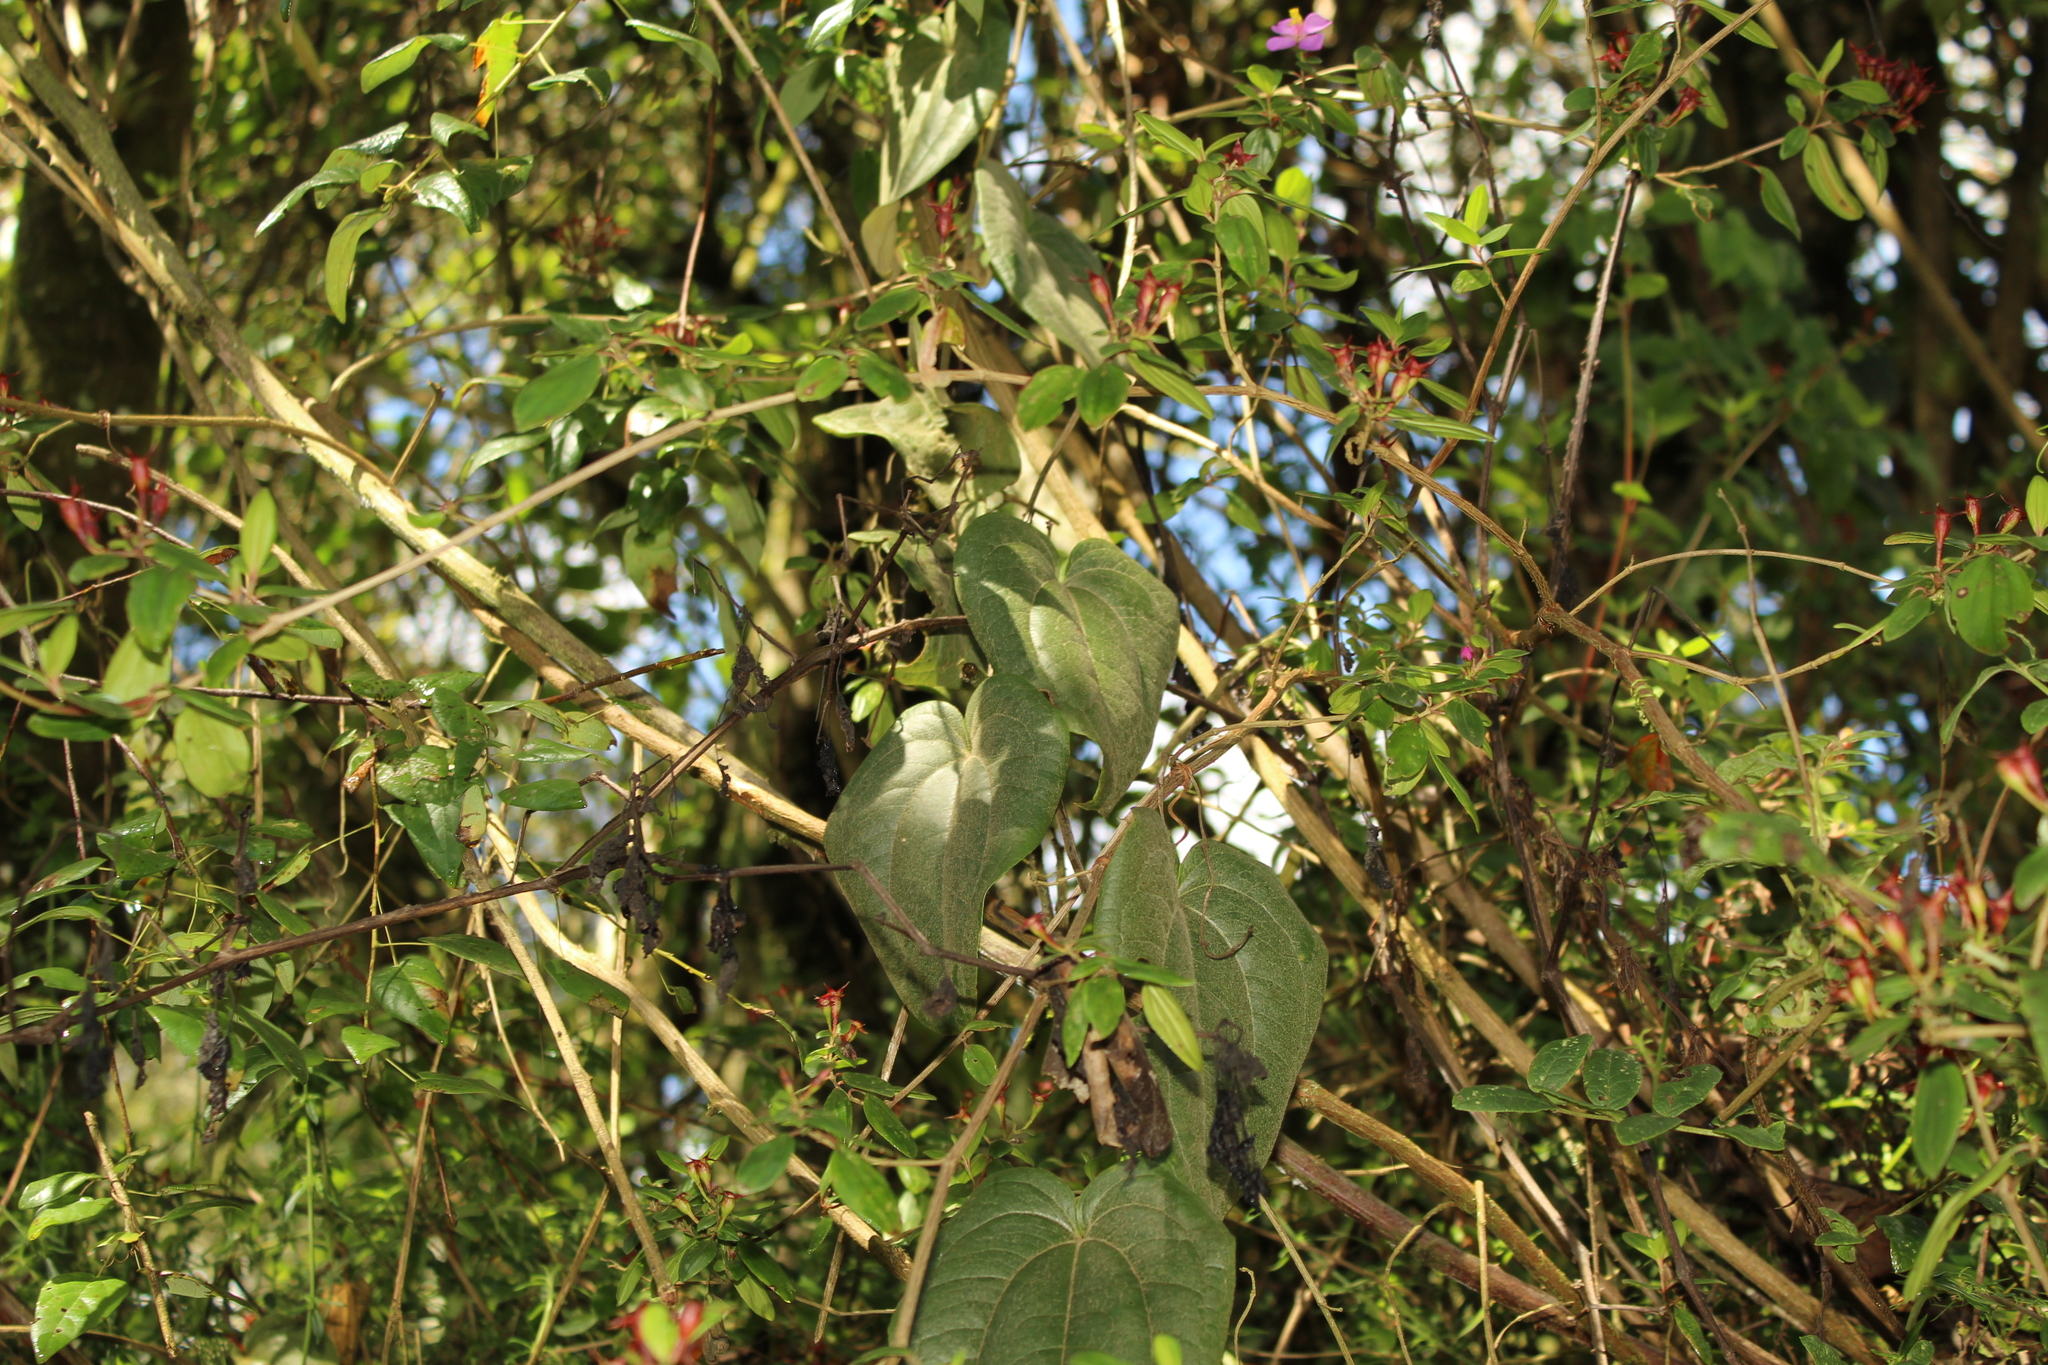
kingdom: Plantae
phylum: Tracheophyta
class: Liliopsida
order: Liliales
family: Smilacaceae
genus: Smilax
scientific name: Smilax tomentosa
